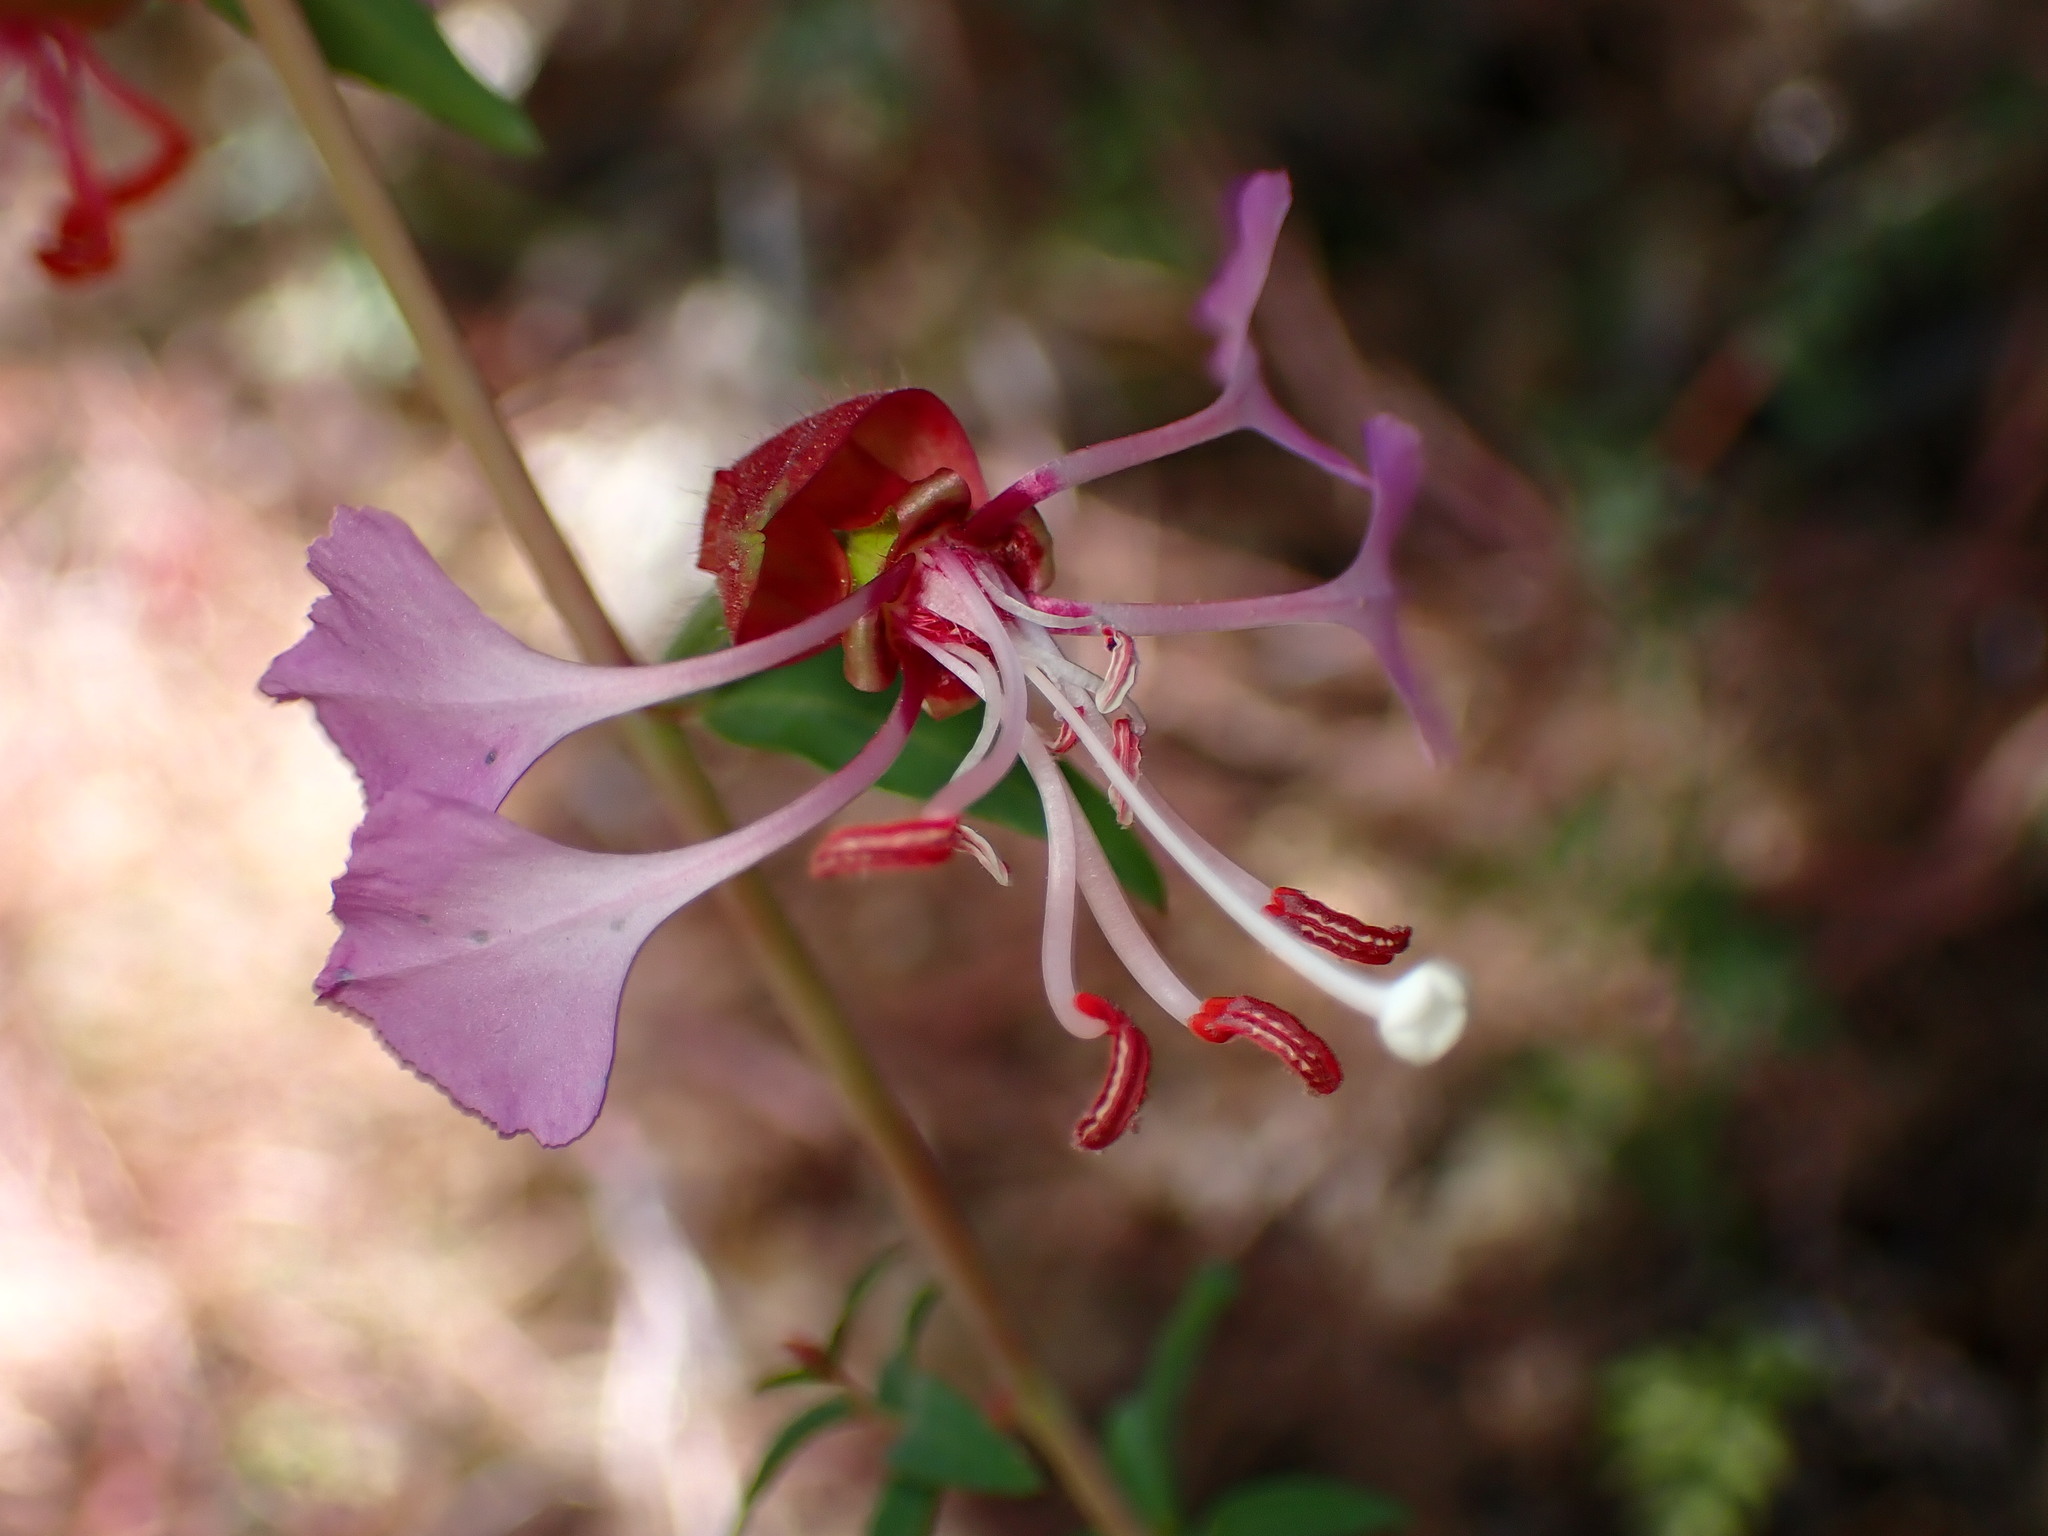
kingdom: Plantae
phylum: Tracheophyta
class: Magnoliopsida
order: Myrtales
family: Onagraceae
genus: Clarkia
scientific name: Clarkia unguiculata
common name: Clarkia
